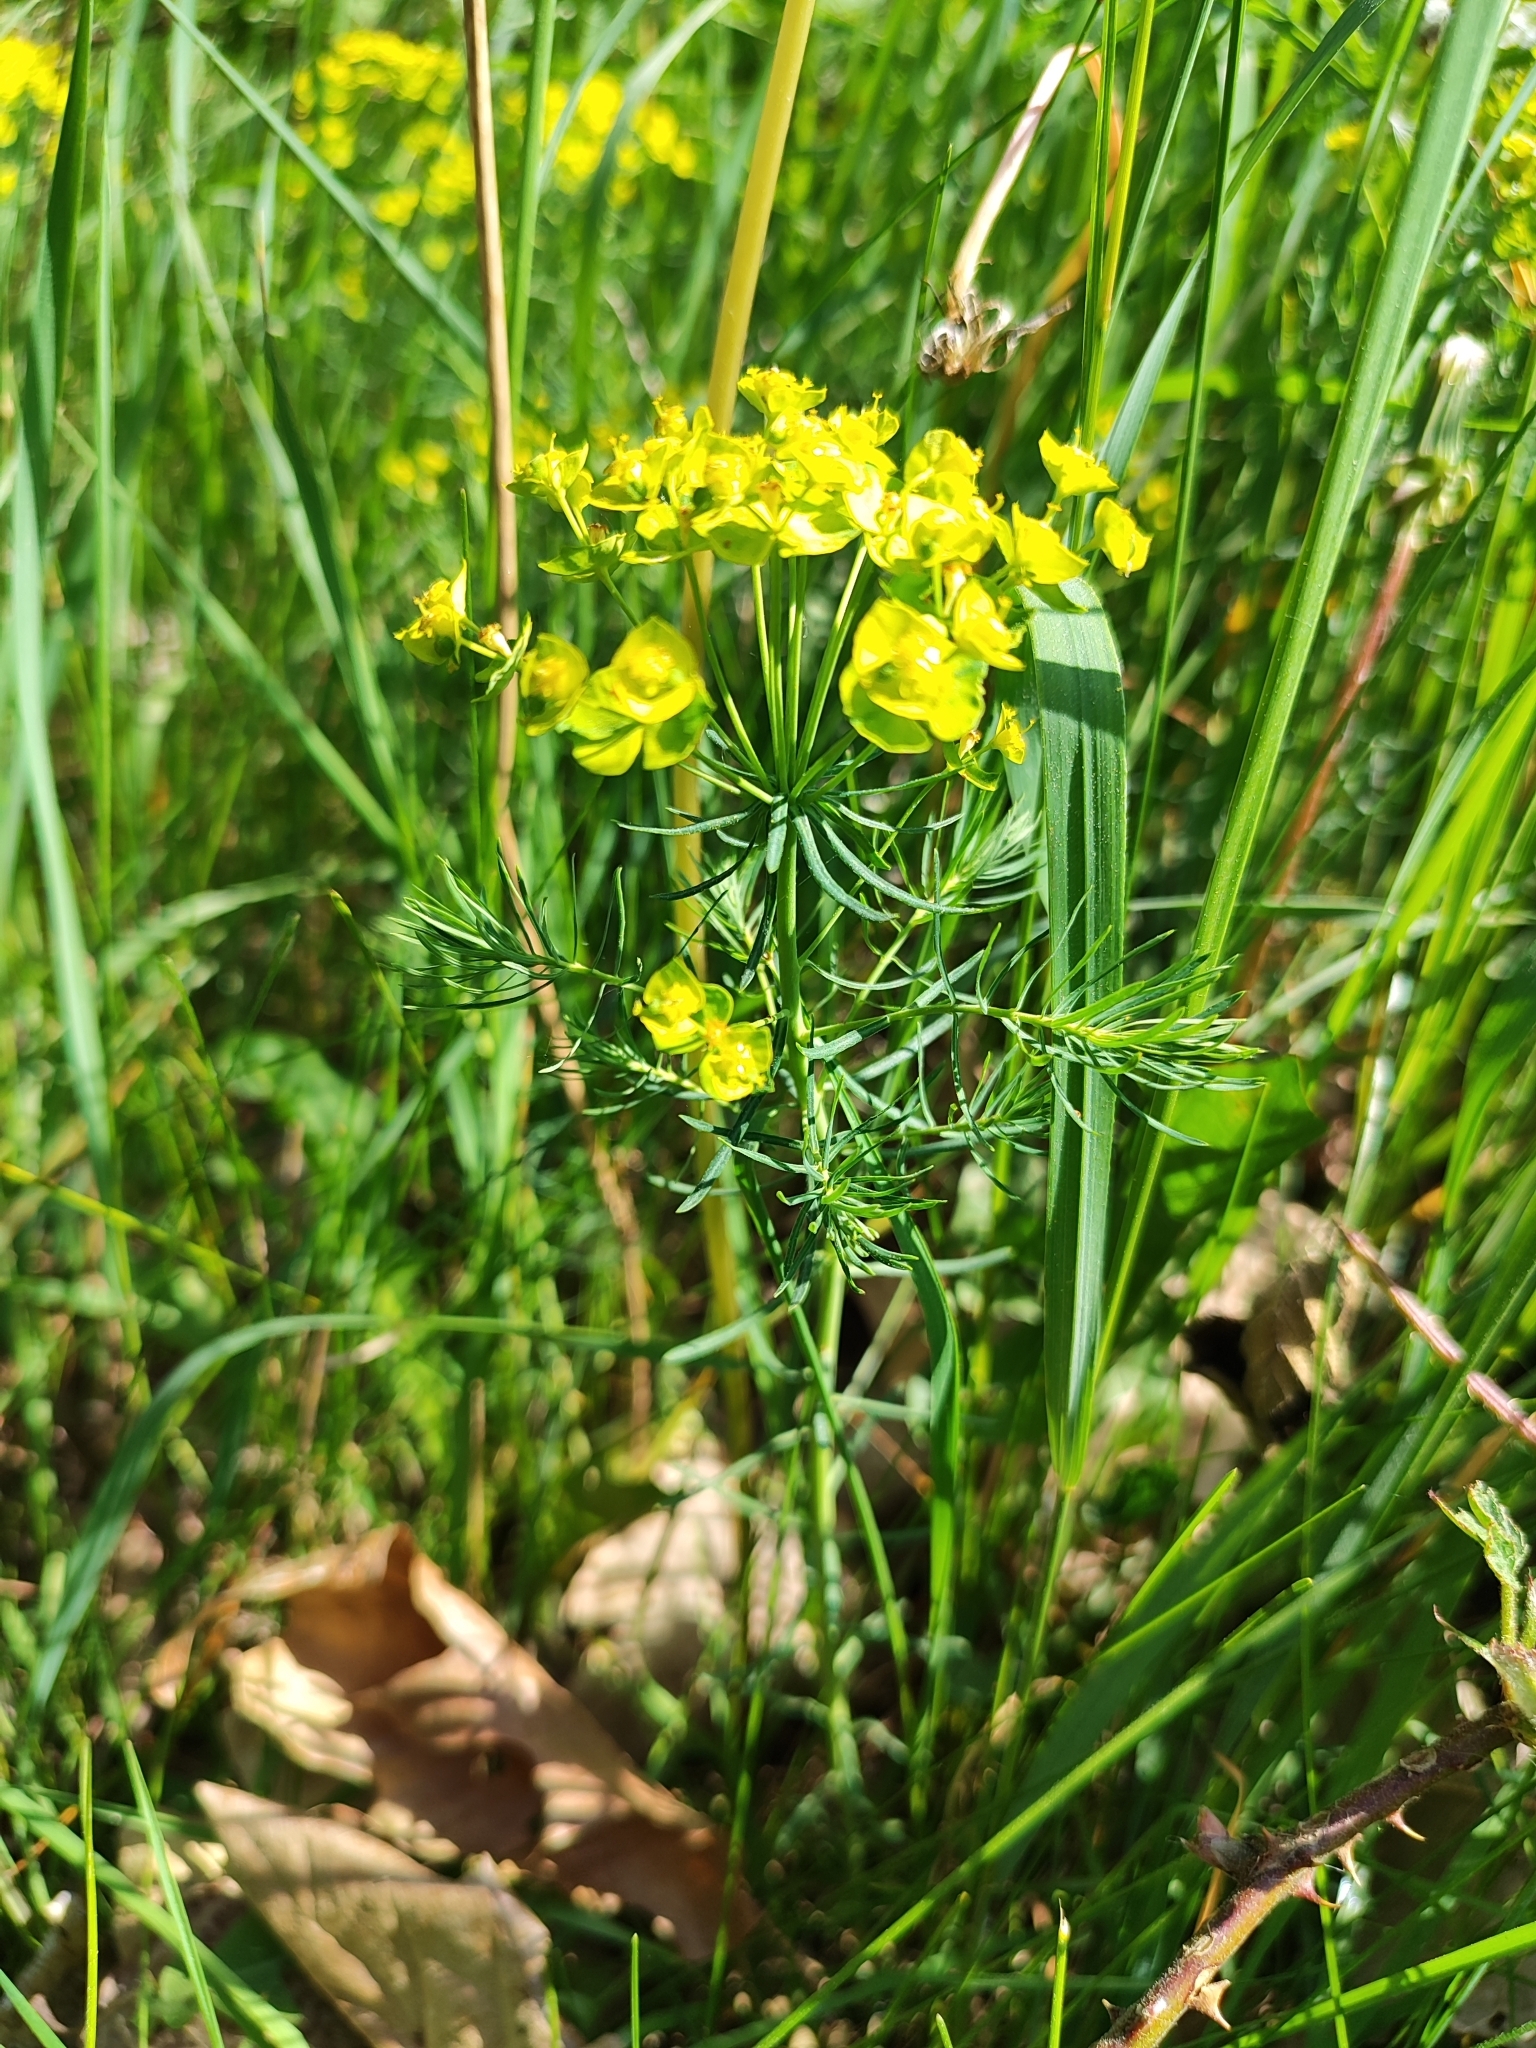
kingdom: Plantae
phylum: Tracheophyta
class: Magnoliopsida
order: Malpighiales
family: Euphorbiaceae
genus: Euphorbia
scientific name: Euphorbia cyparissias
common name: Cypress spurge
